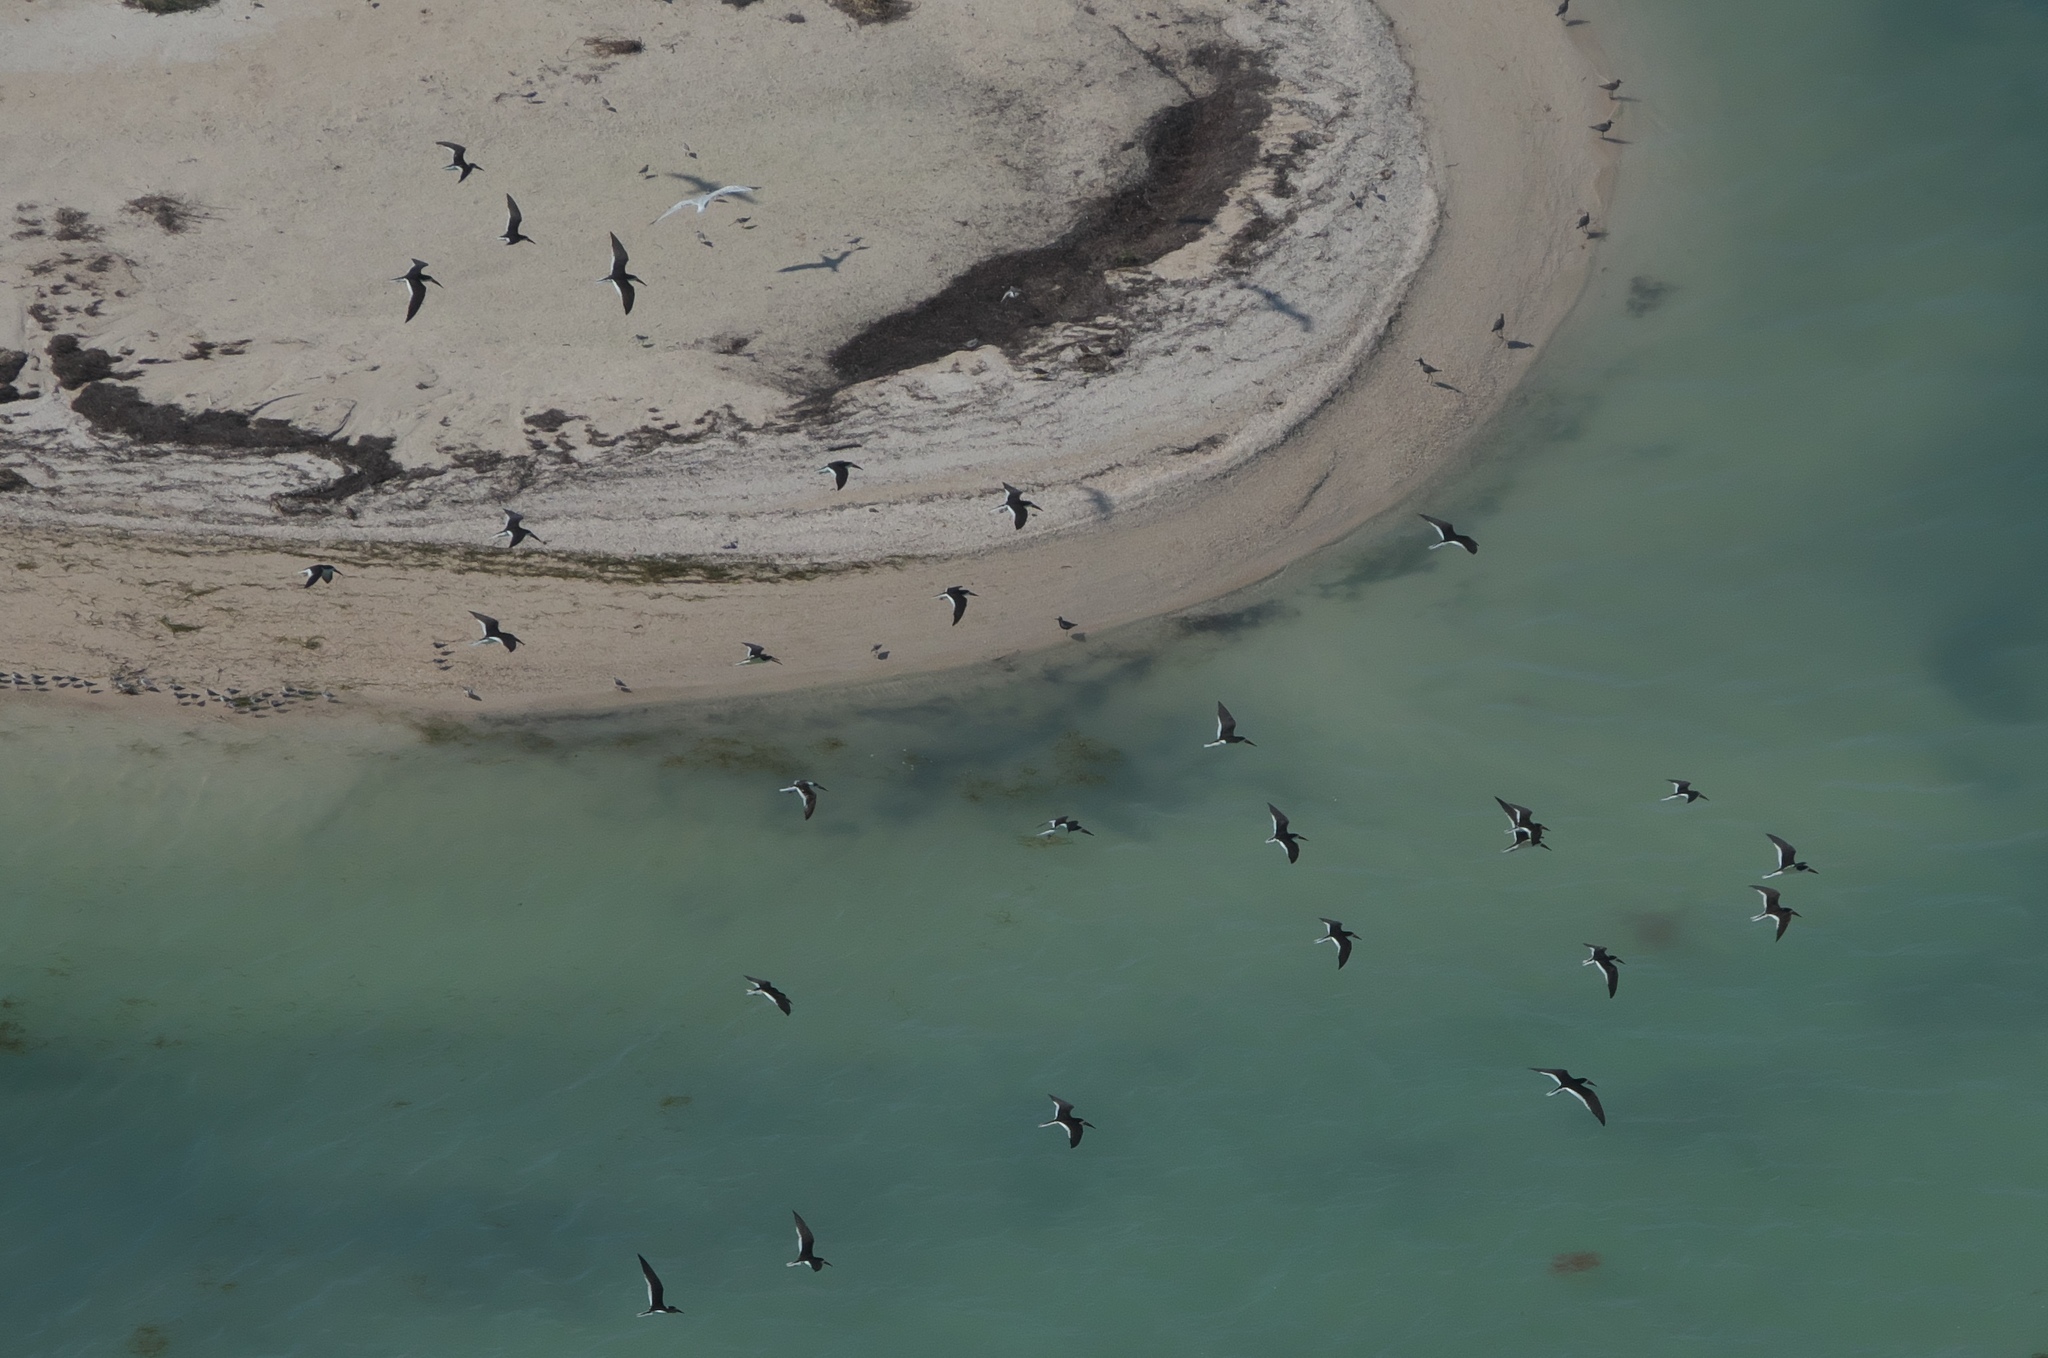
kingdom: Animalia
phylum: Chordata
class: Aves
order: Charadriiformes
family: Laridae
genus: Rynchops
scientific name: Rynchops niger
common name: Black skimmer
